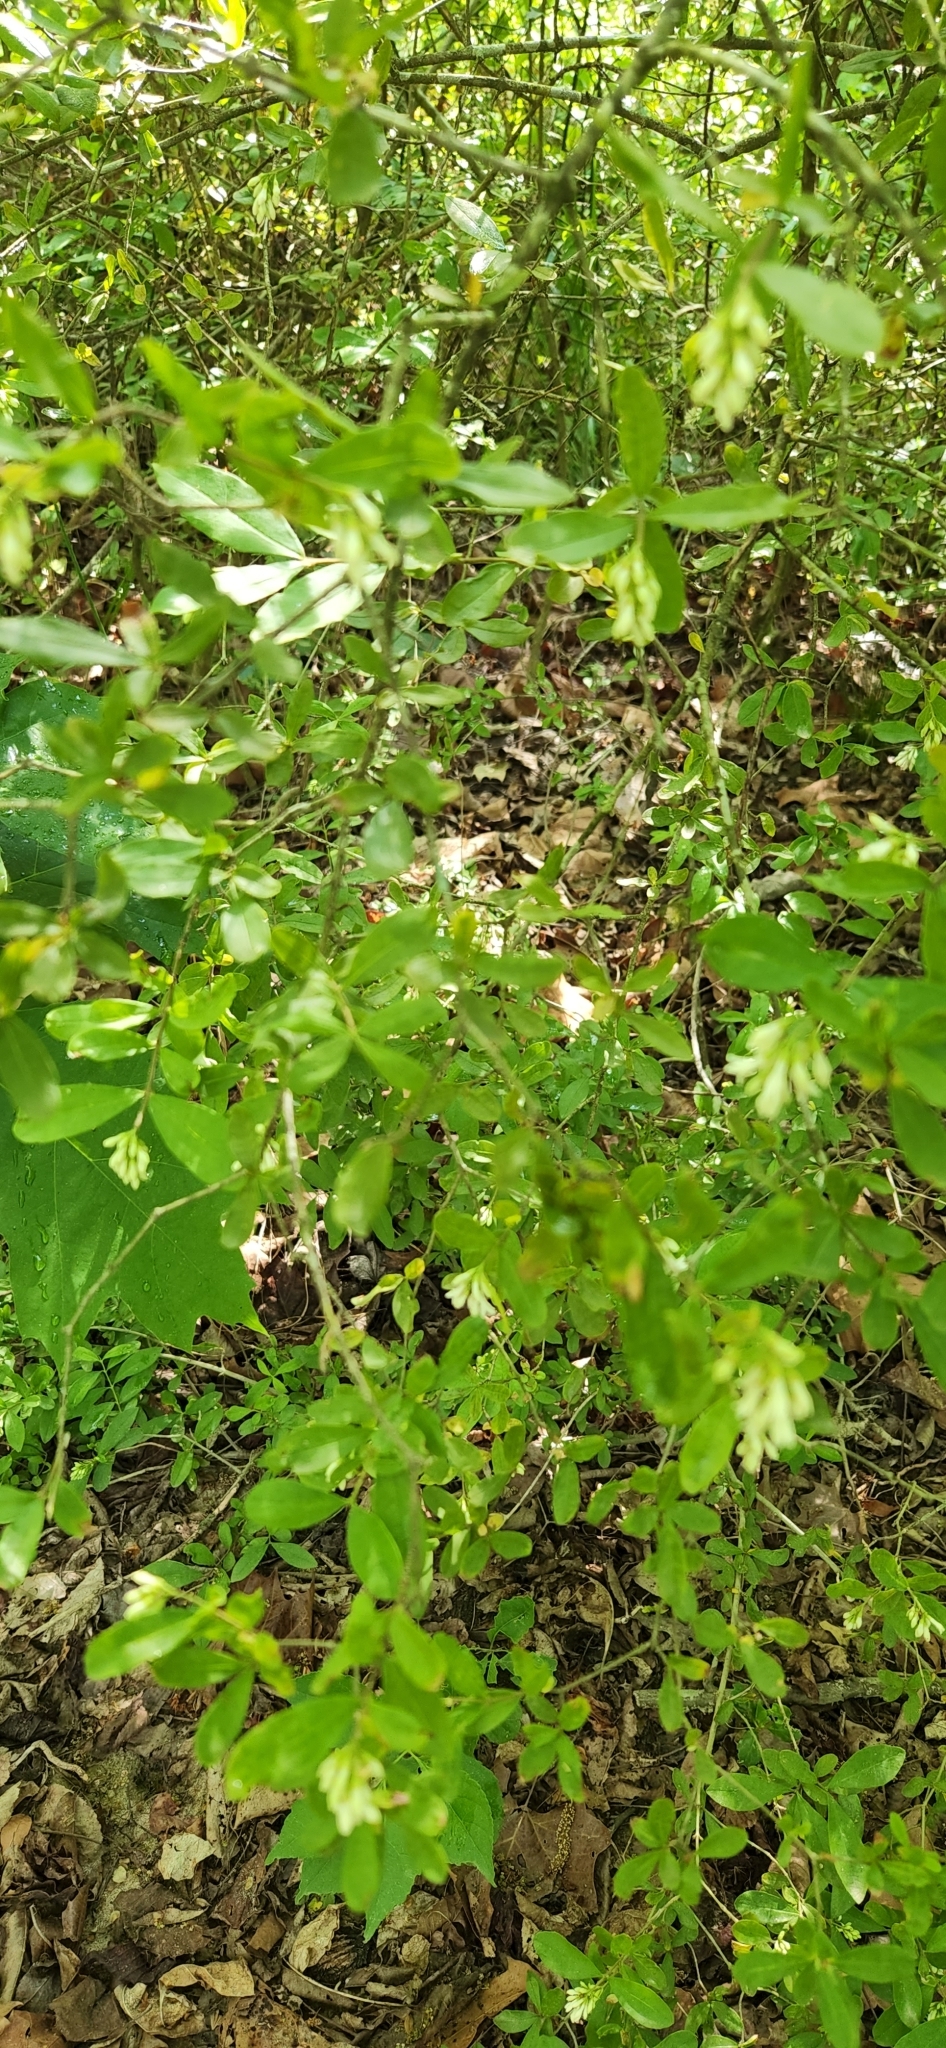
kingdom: Plantae
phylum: Tracheophyta
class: Magnoliopsida
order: Lamiales
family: Oleaceae
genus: Ligustrum
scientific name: Ligustrum obtusifolium
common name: Border privet
